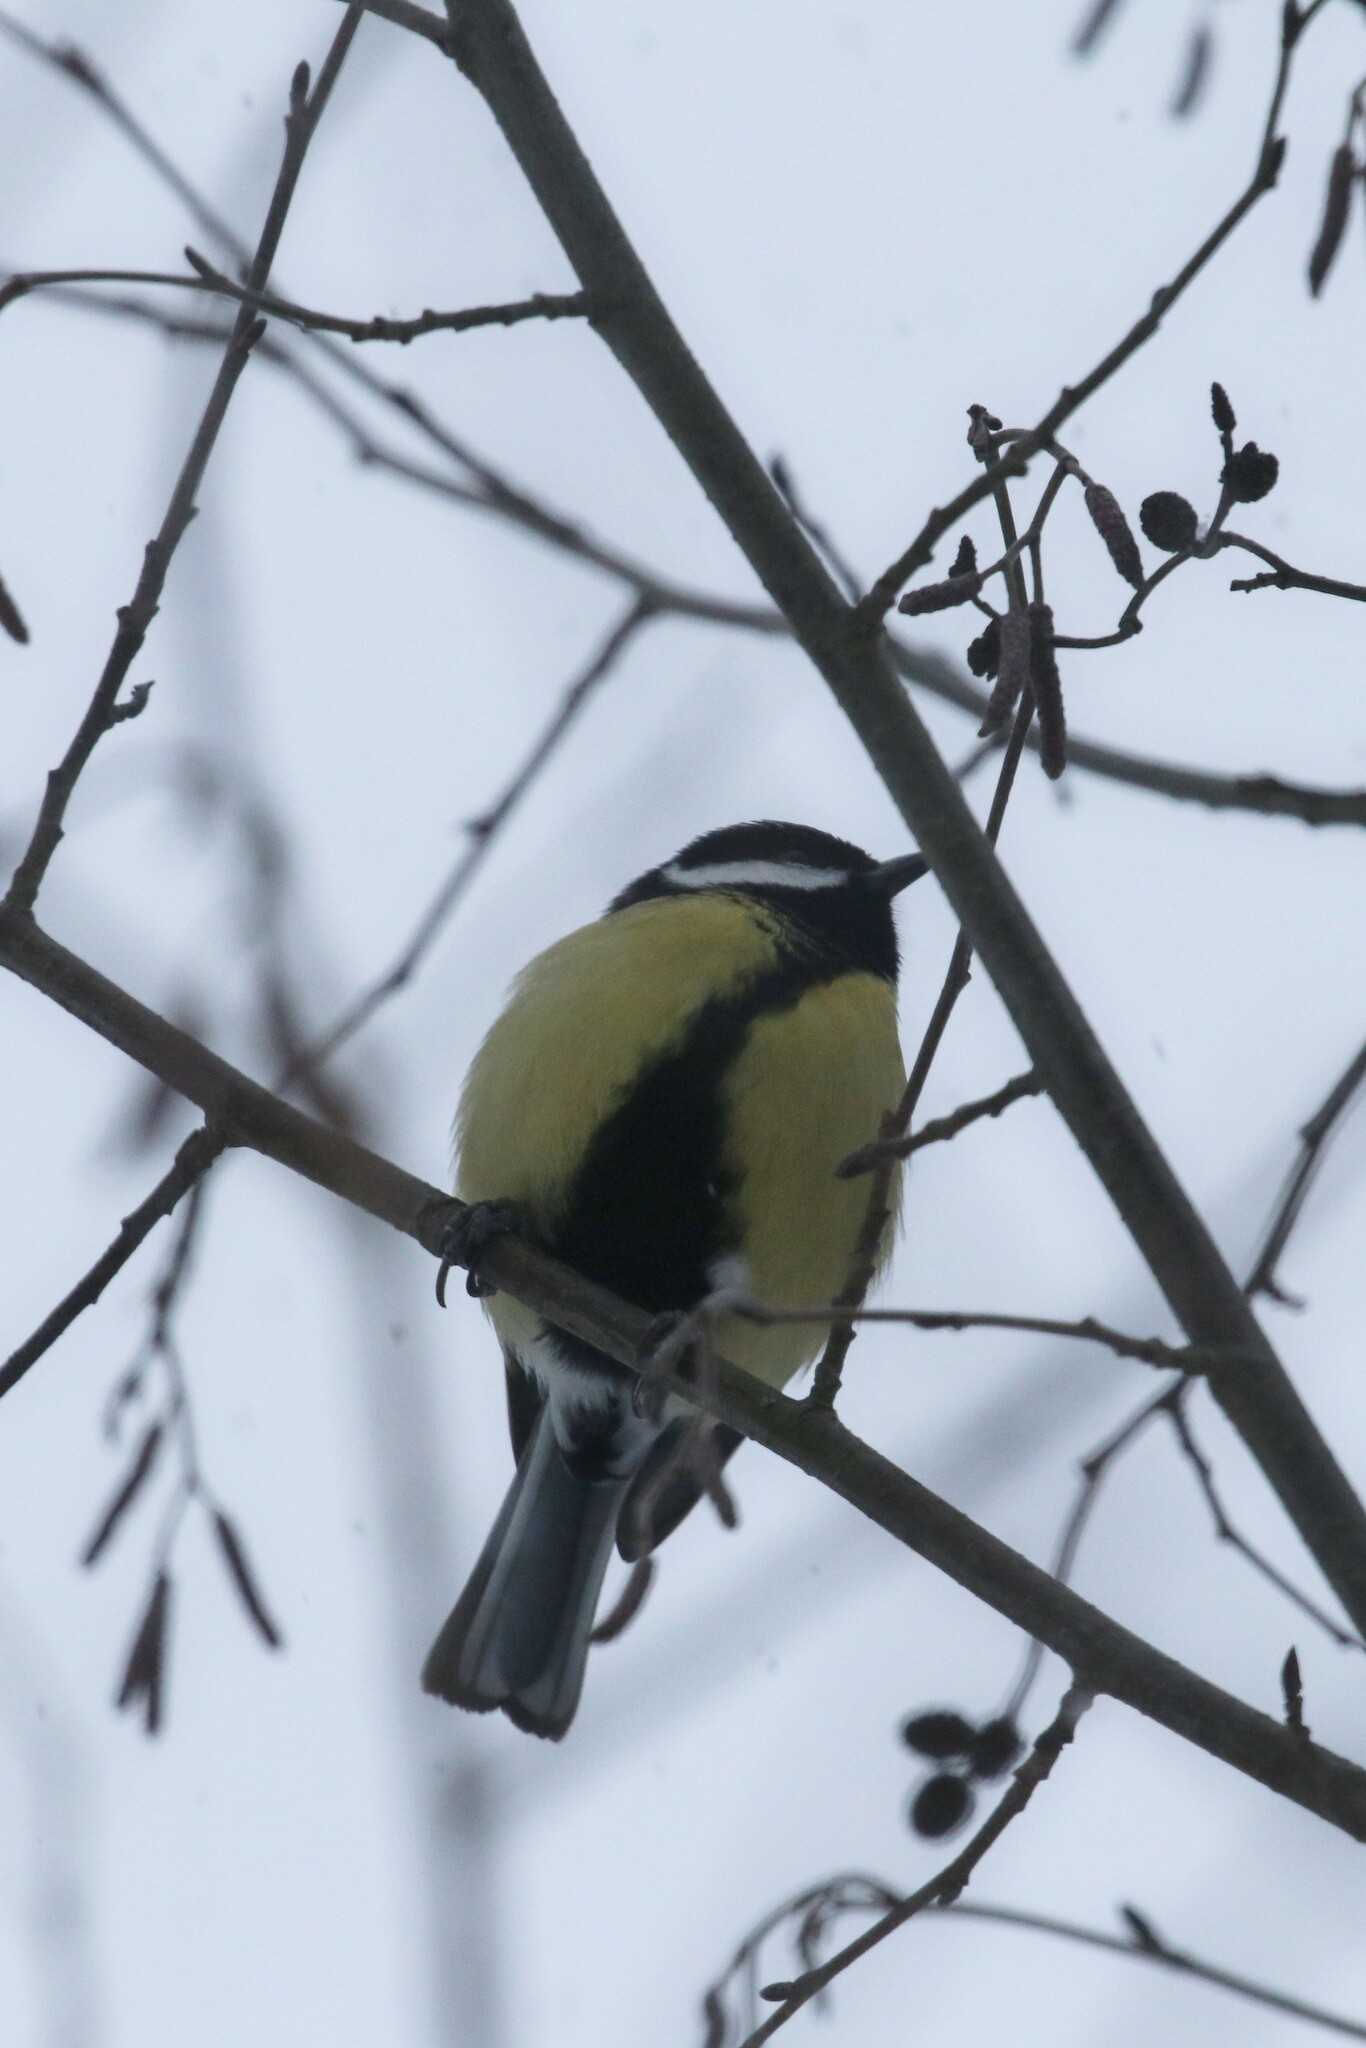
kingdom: Animalia
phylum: Chordata
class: Aves
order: Passeriformes
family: Paridae
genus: Parus
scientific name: Parus major
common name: Great tit
